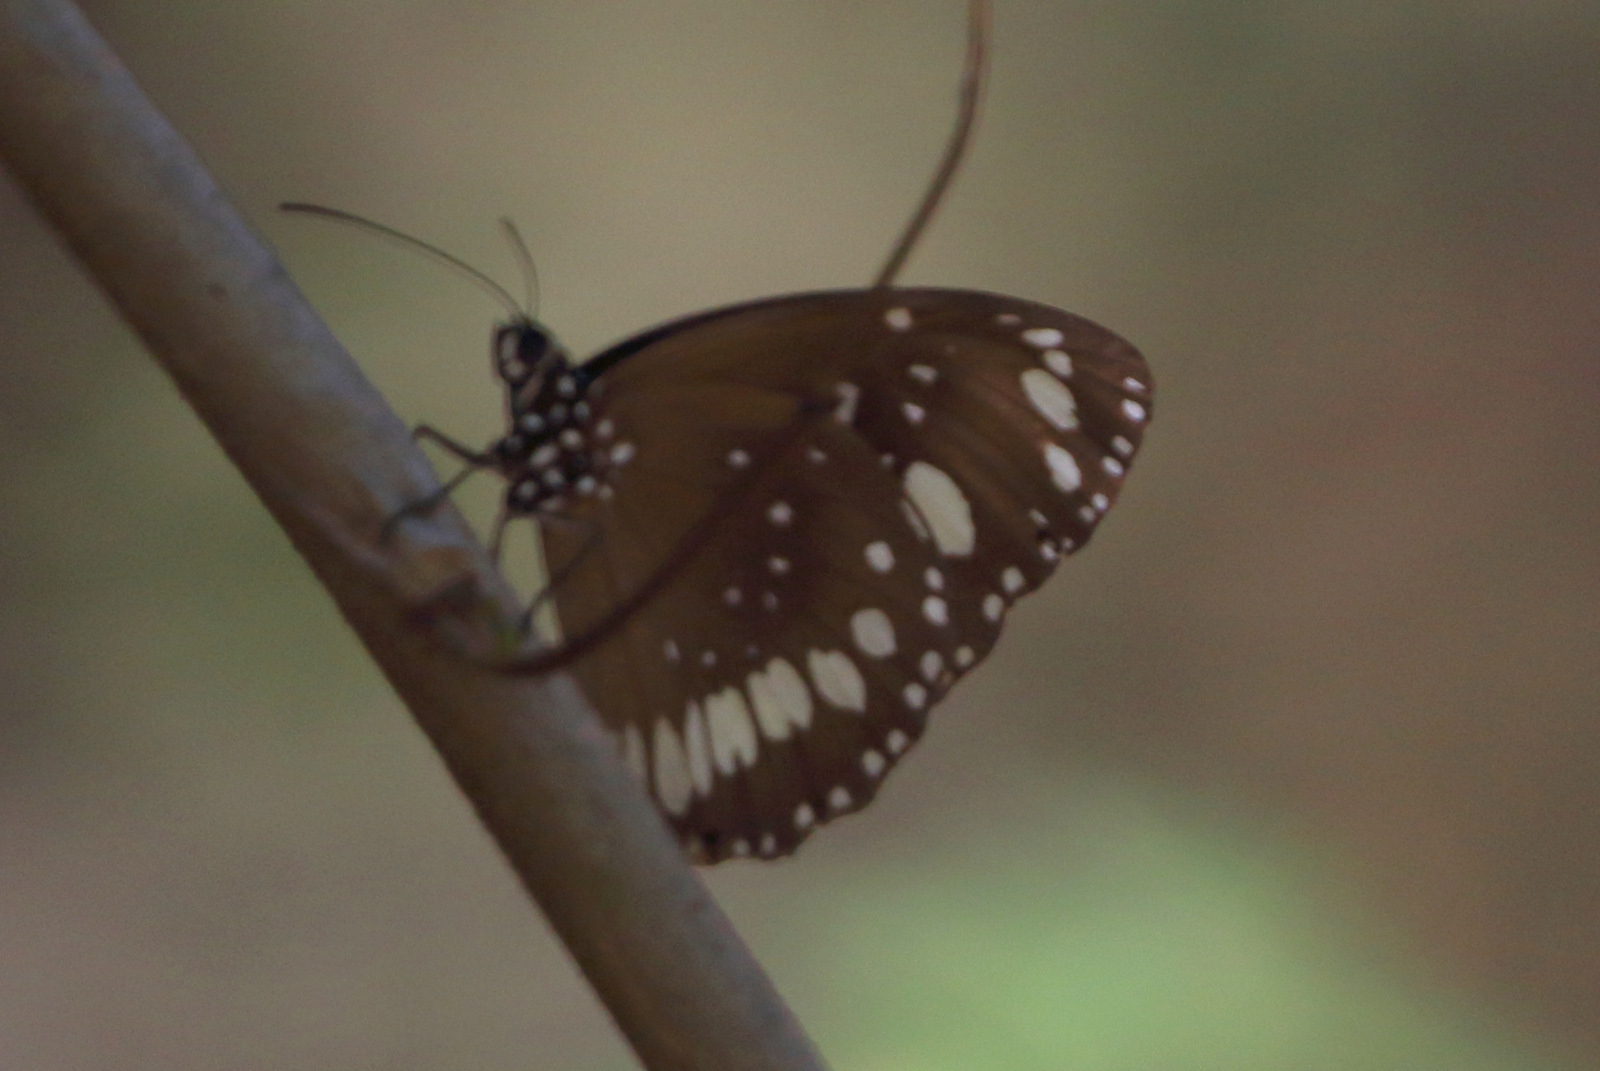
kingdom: Animalia
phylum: Arthropoda
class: Insecta
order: Lepidoptera
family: Nymphalidae
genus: Euploea
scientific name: Euploea core
